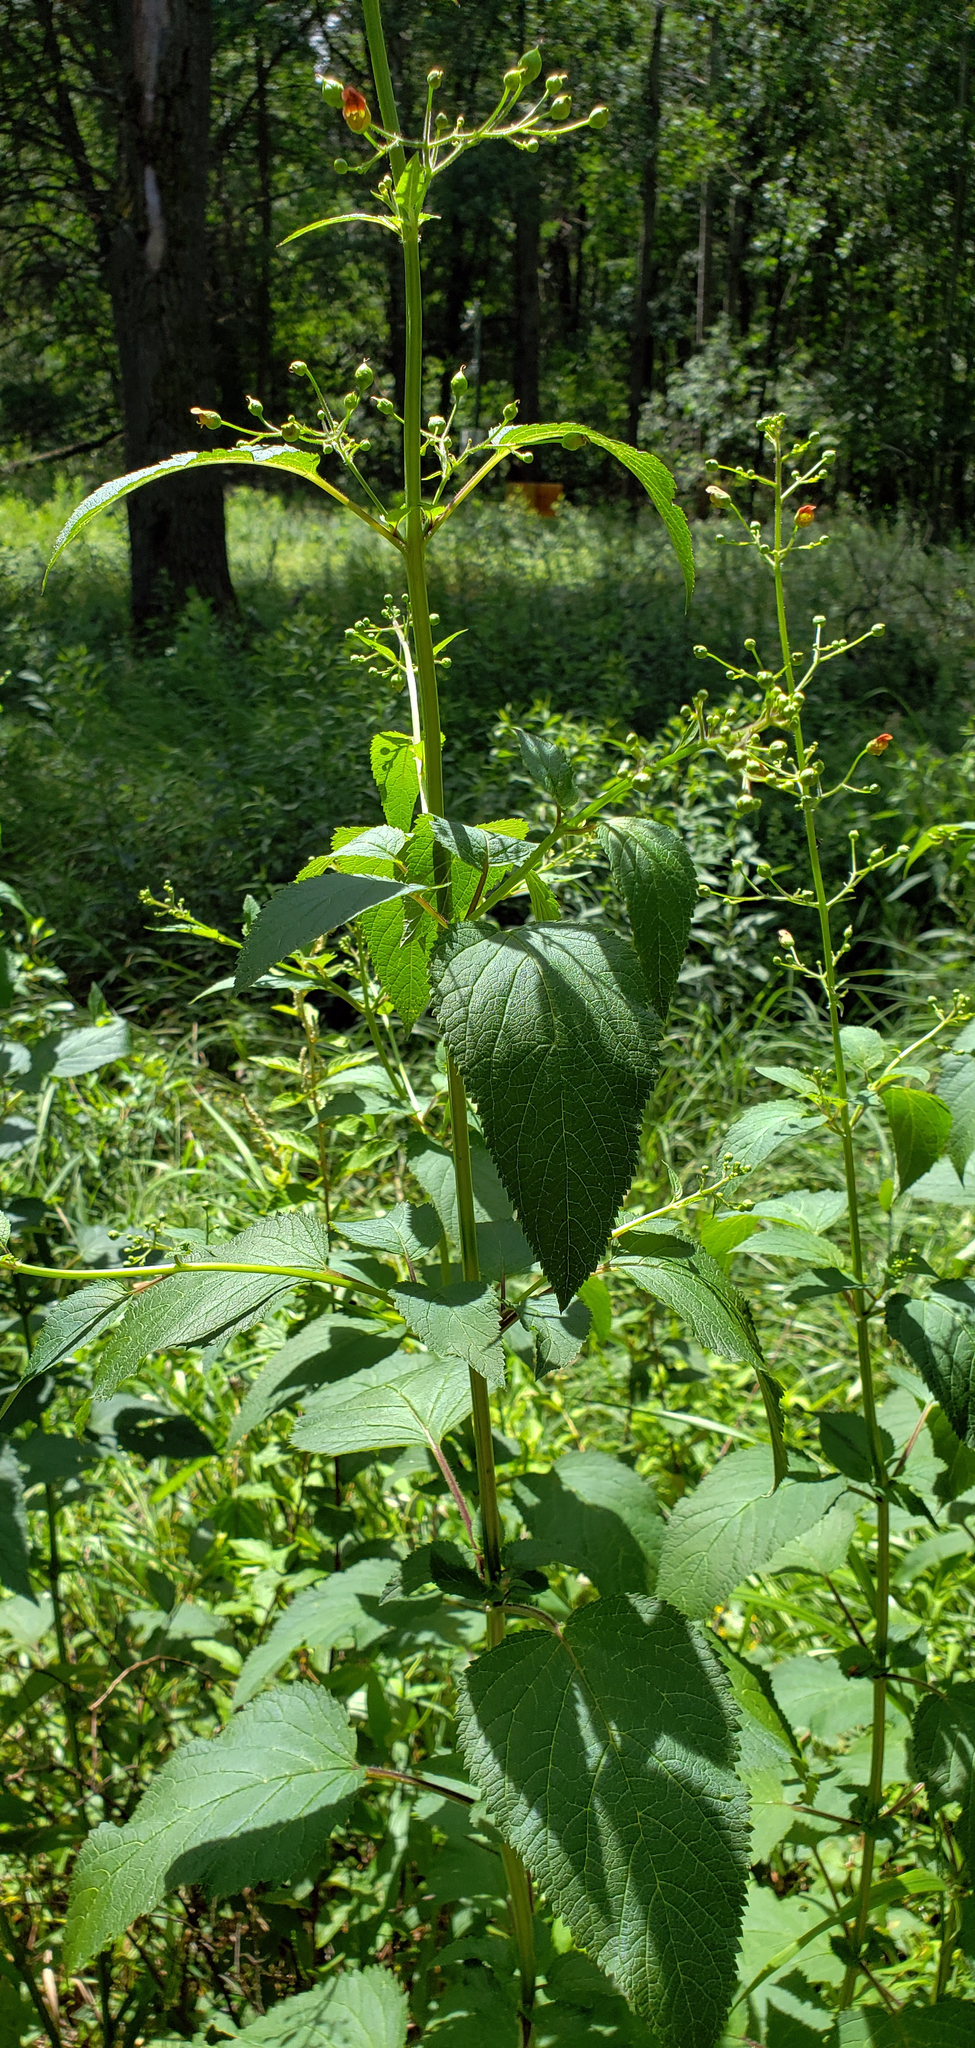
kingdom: Plantae
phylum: Tracheophyta
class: Magnoliopsida
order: Lamiales
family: Scrophulariaceae
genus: Scrophularia
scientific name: Scrophularia marilandica
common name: Eastern figwort
